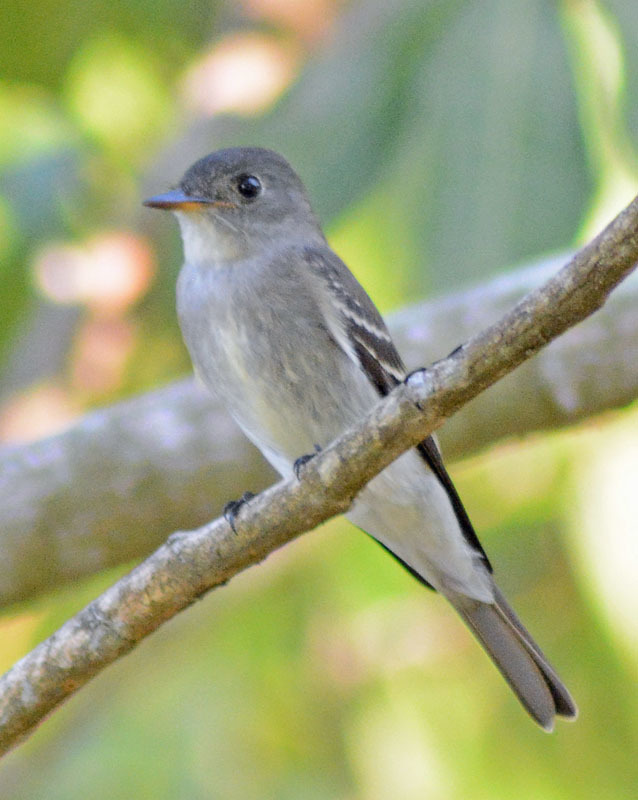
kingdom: Animalia
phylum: Chordata
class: Aves
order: Passeriformes
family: Tyrannidae
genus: Contopus
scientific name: Contopus virens
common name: Eastern wood-pewee
